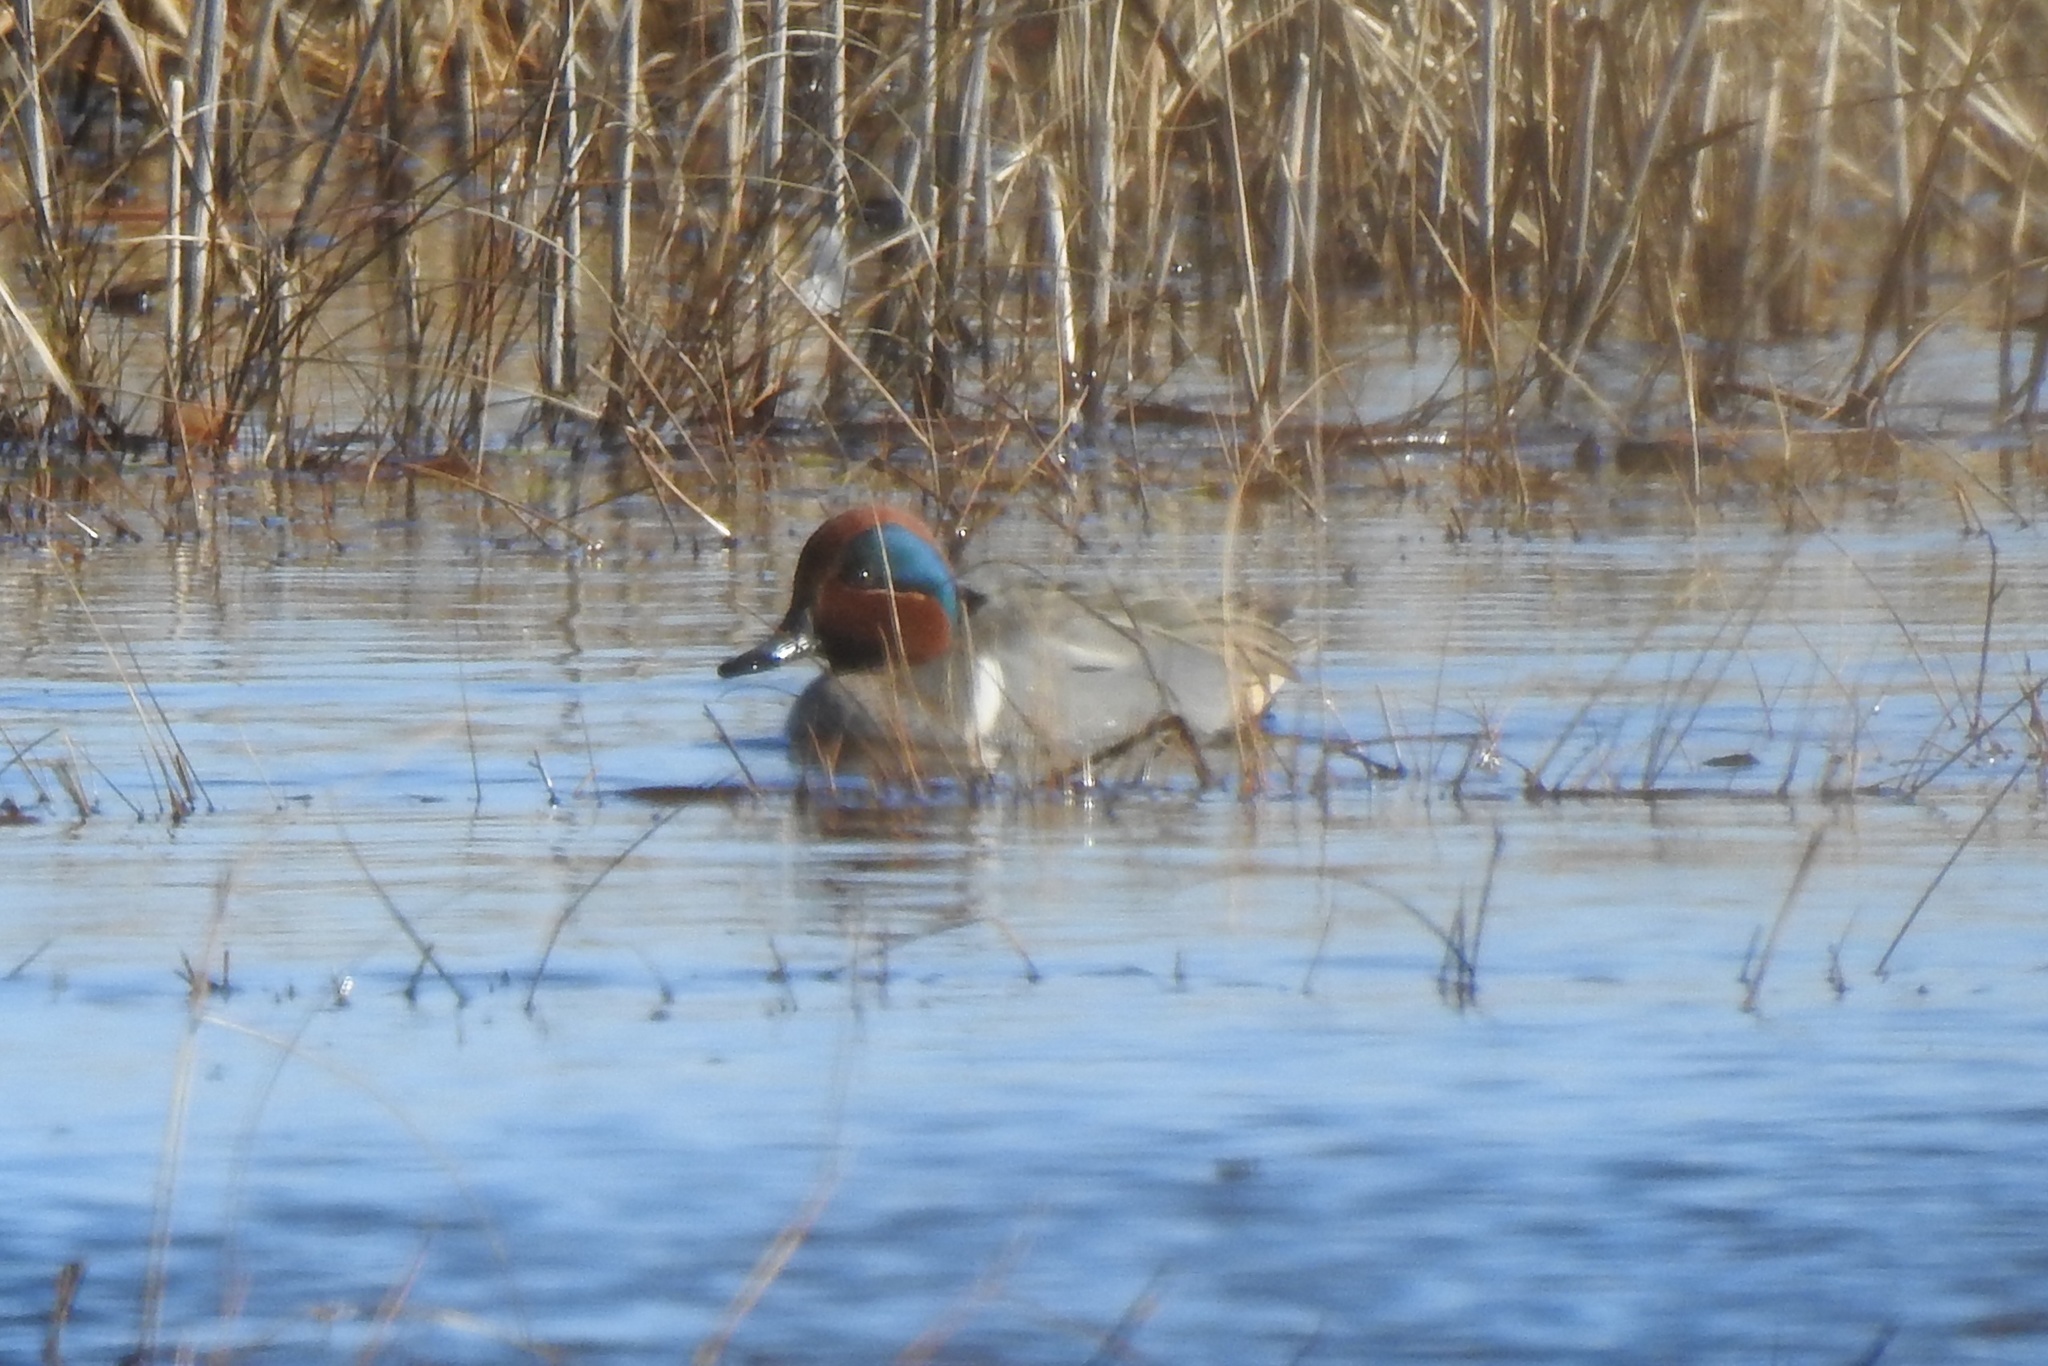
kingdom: Animalia
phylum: Chordata
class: Aves
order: Anseriformes
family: Anatidae
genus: Anas
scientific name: Anas crecca
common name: Eurasian teal
